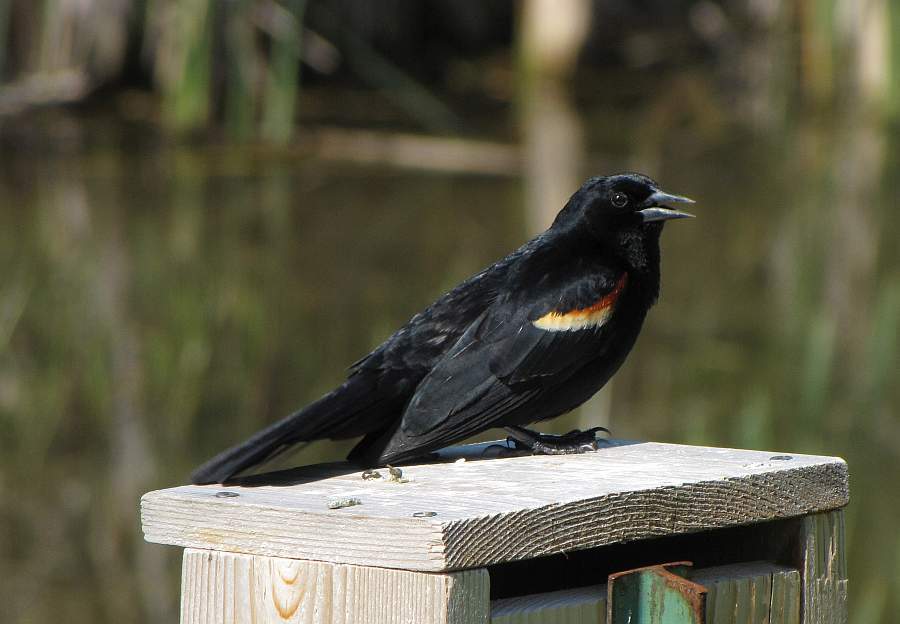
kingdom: Animalia
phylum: Chordata
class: Aves
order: Passeriformes
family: Icteridae
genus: Agelaius
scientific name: Agelaius phoeniceus
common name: Red-winged blackbird
